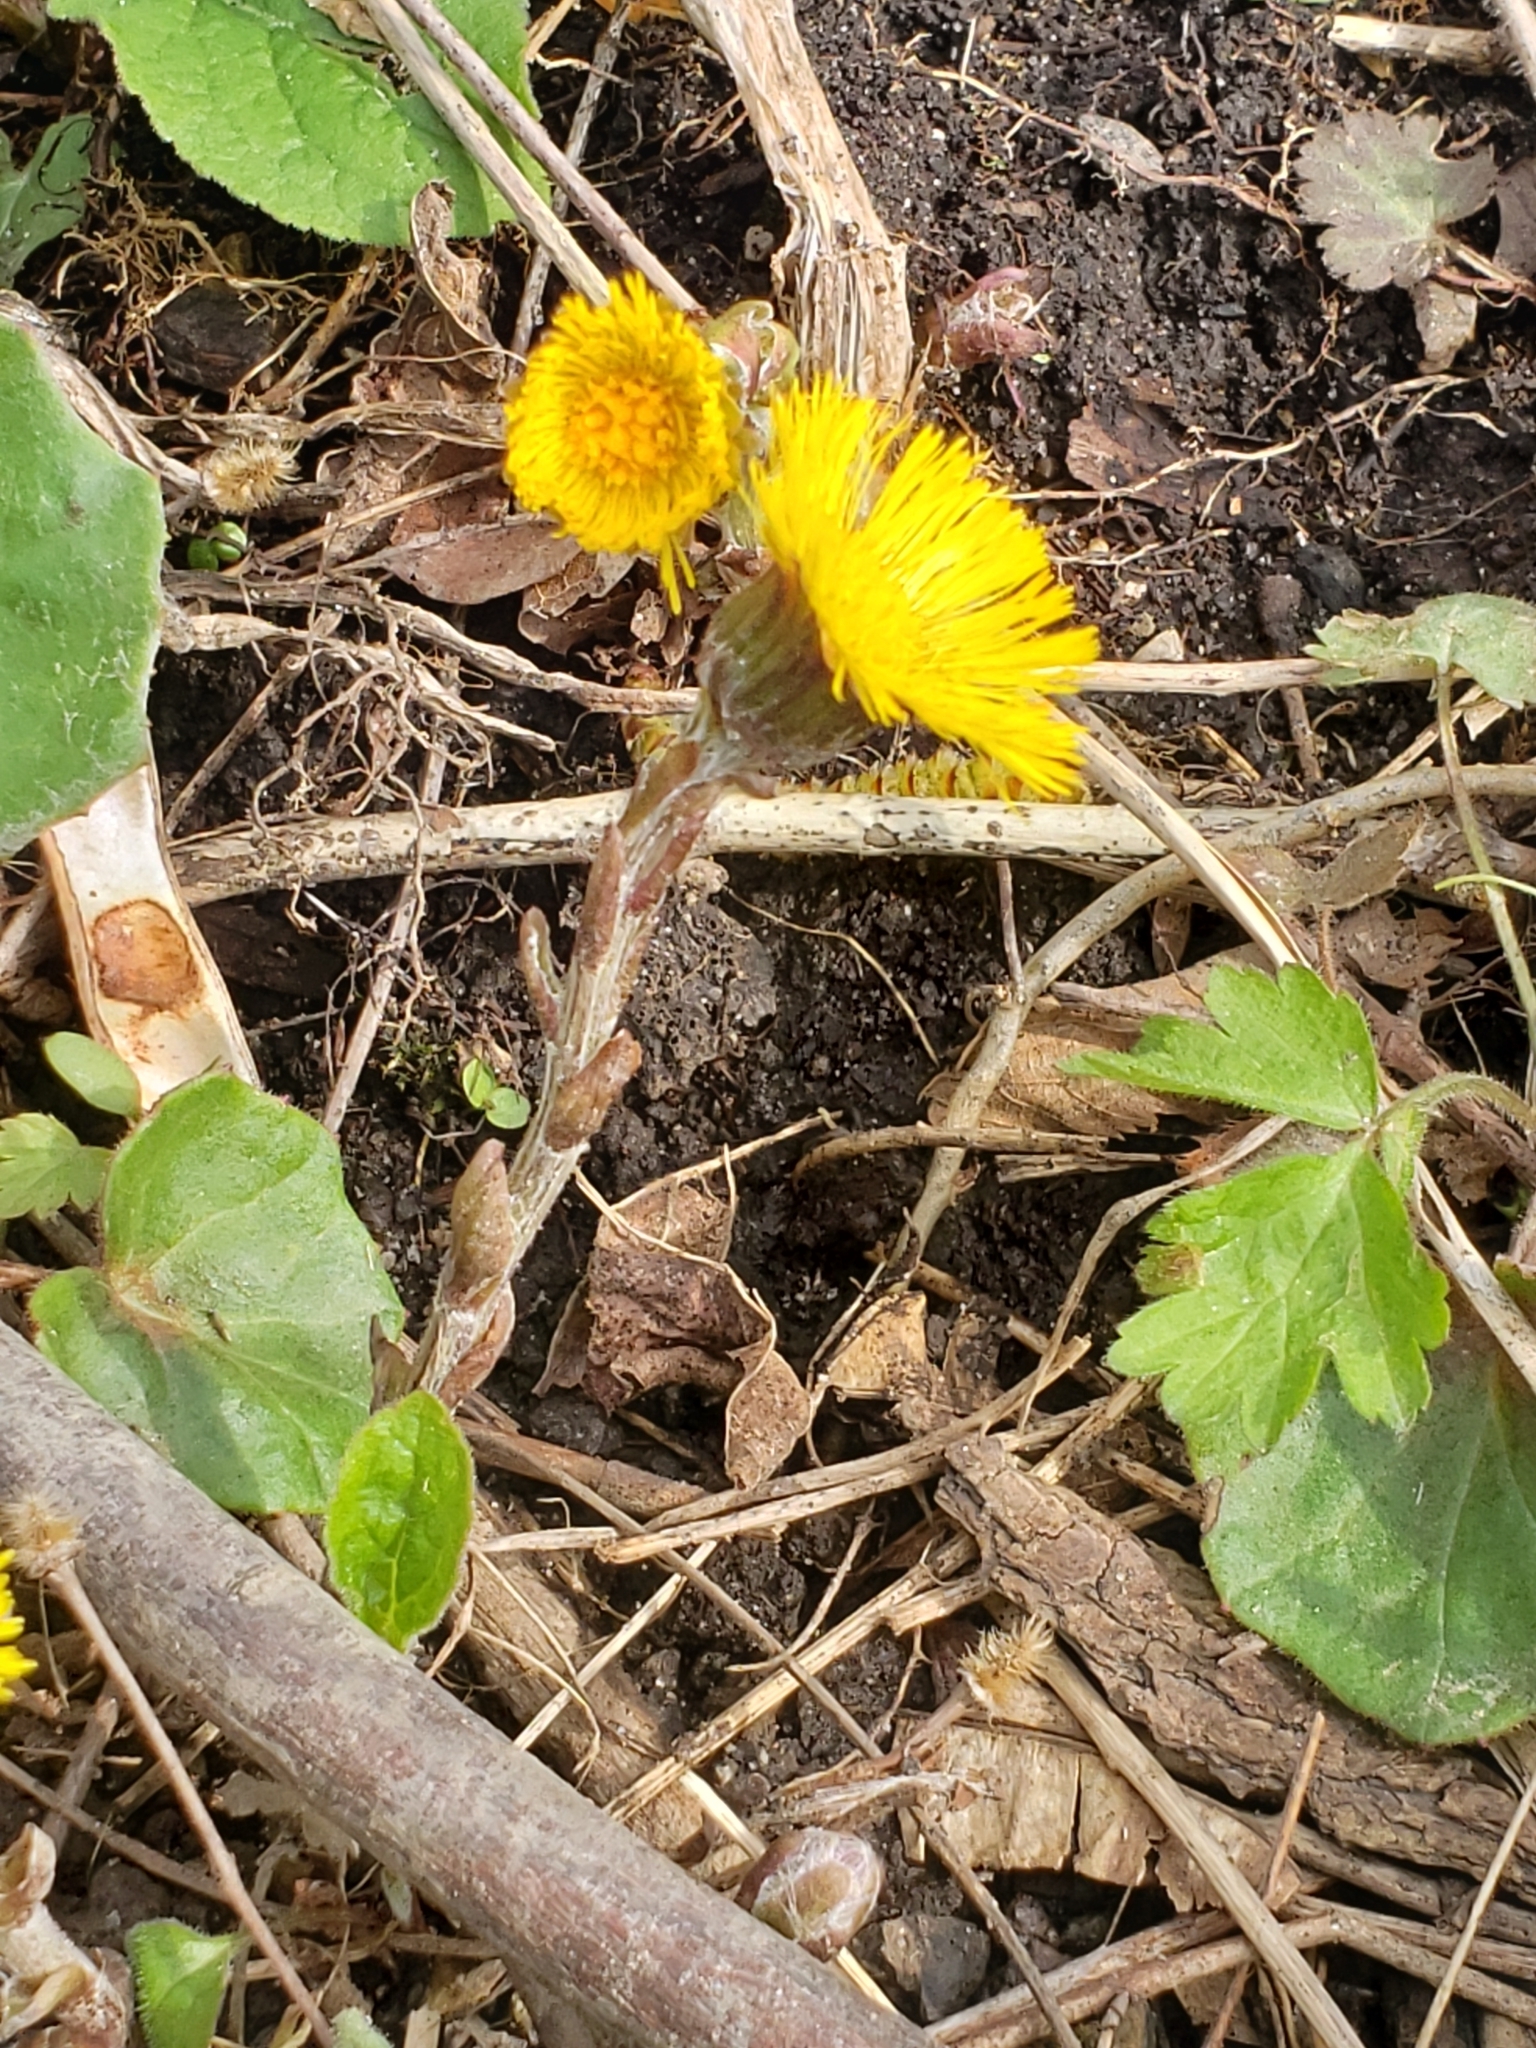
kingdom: Plantae
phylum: Tracheophyta
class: Magnoliopsida
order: Asterales
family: Asteraceae
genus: Tussilago
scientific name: Tussilago farfara
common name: Coltsfoot
